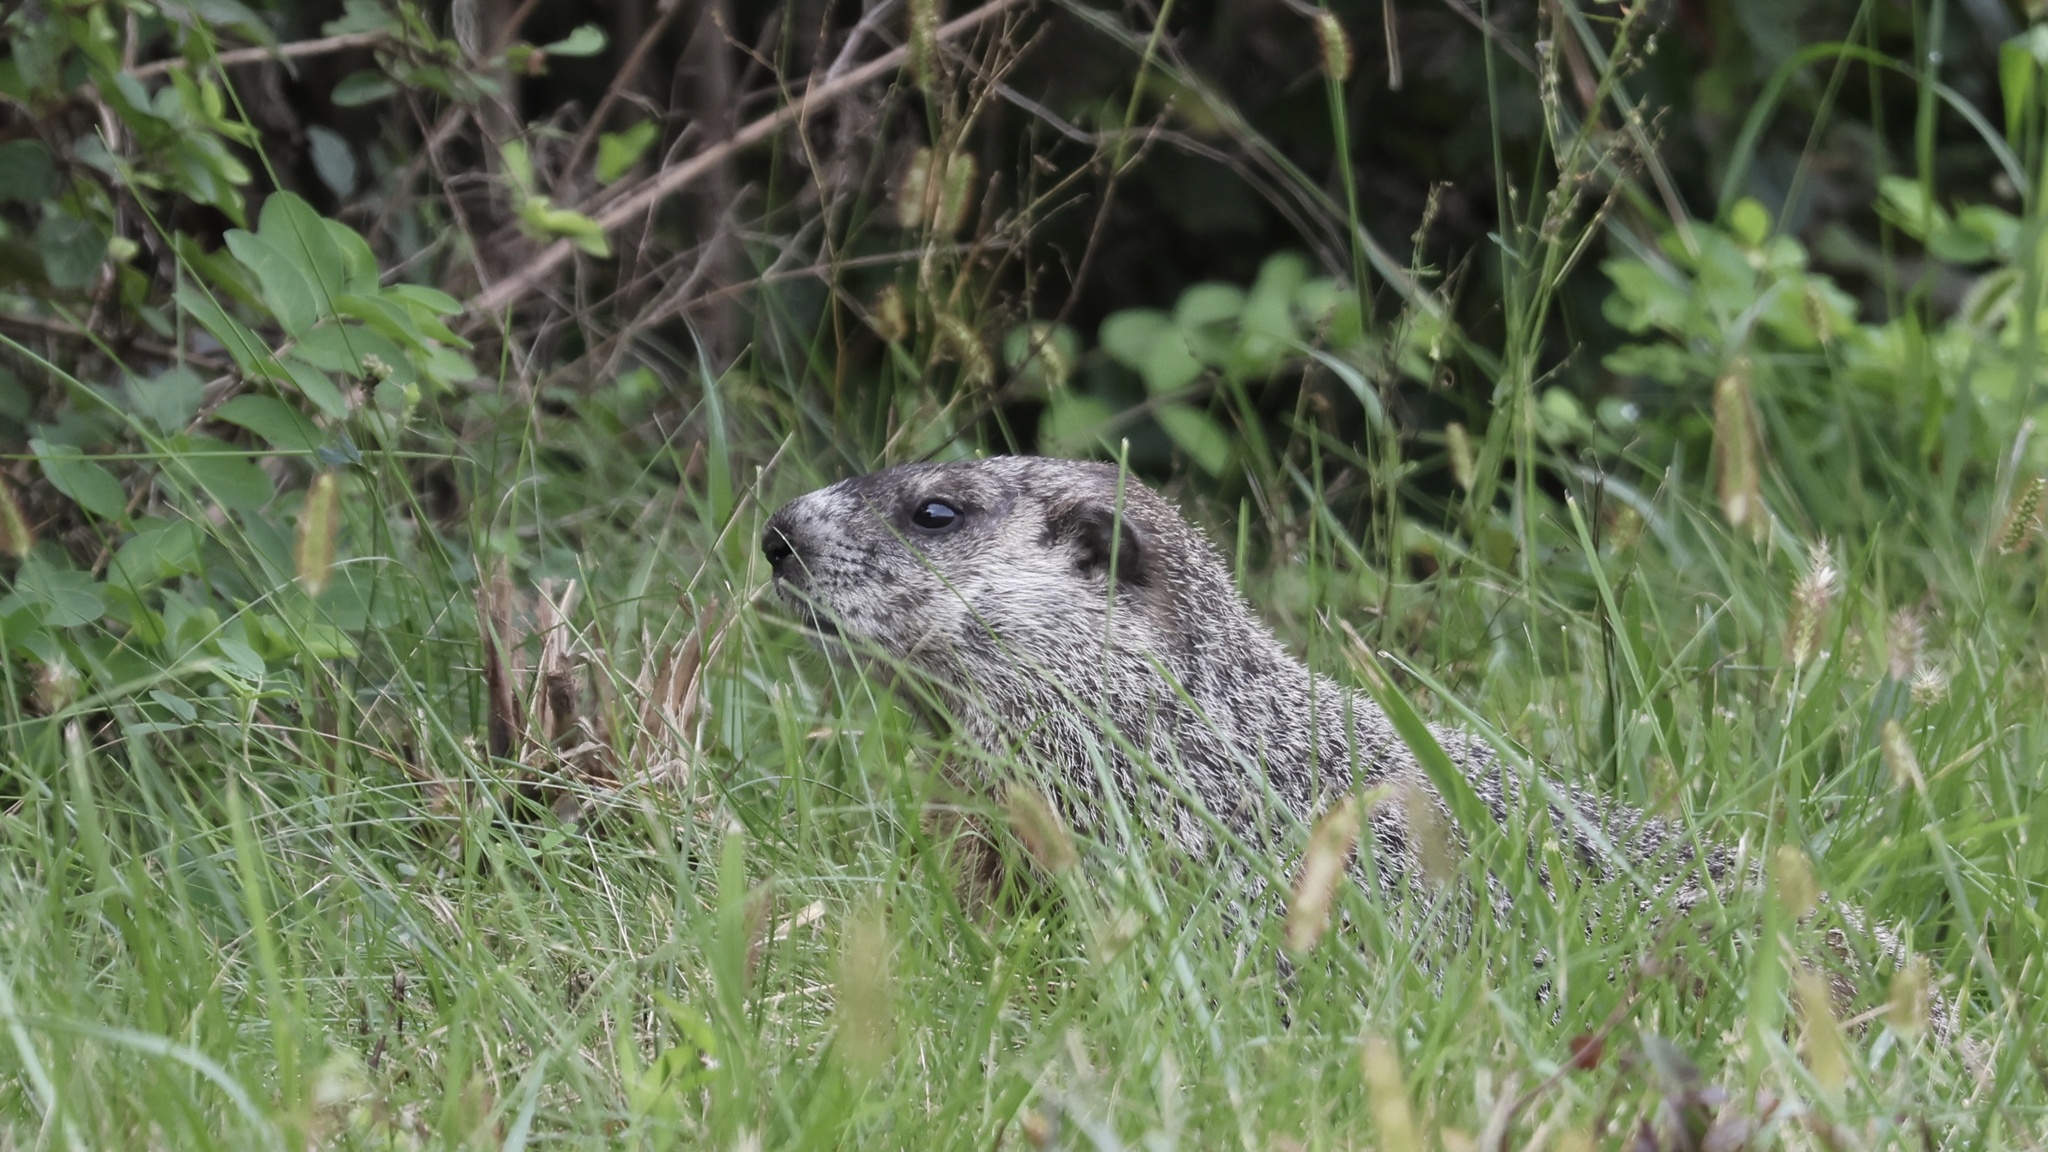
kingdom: Animalia
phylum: Chordata
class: Mammalia
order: Rodentia
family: Sciuridae
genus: Marmota
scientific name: Marmota monax
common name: Groundhog
